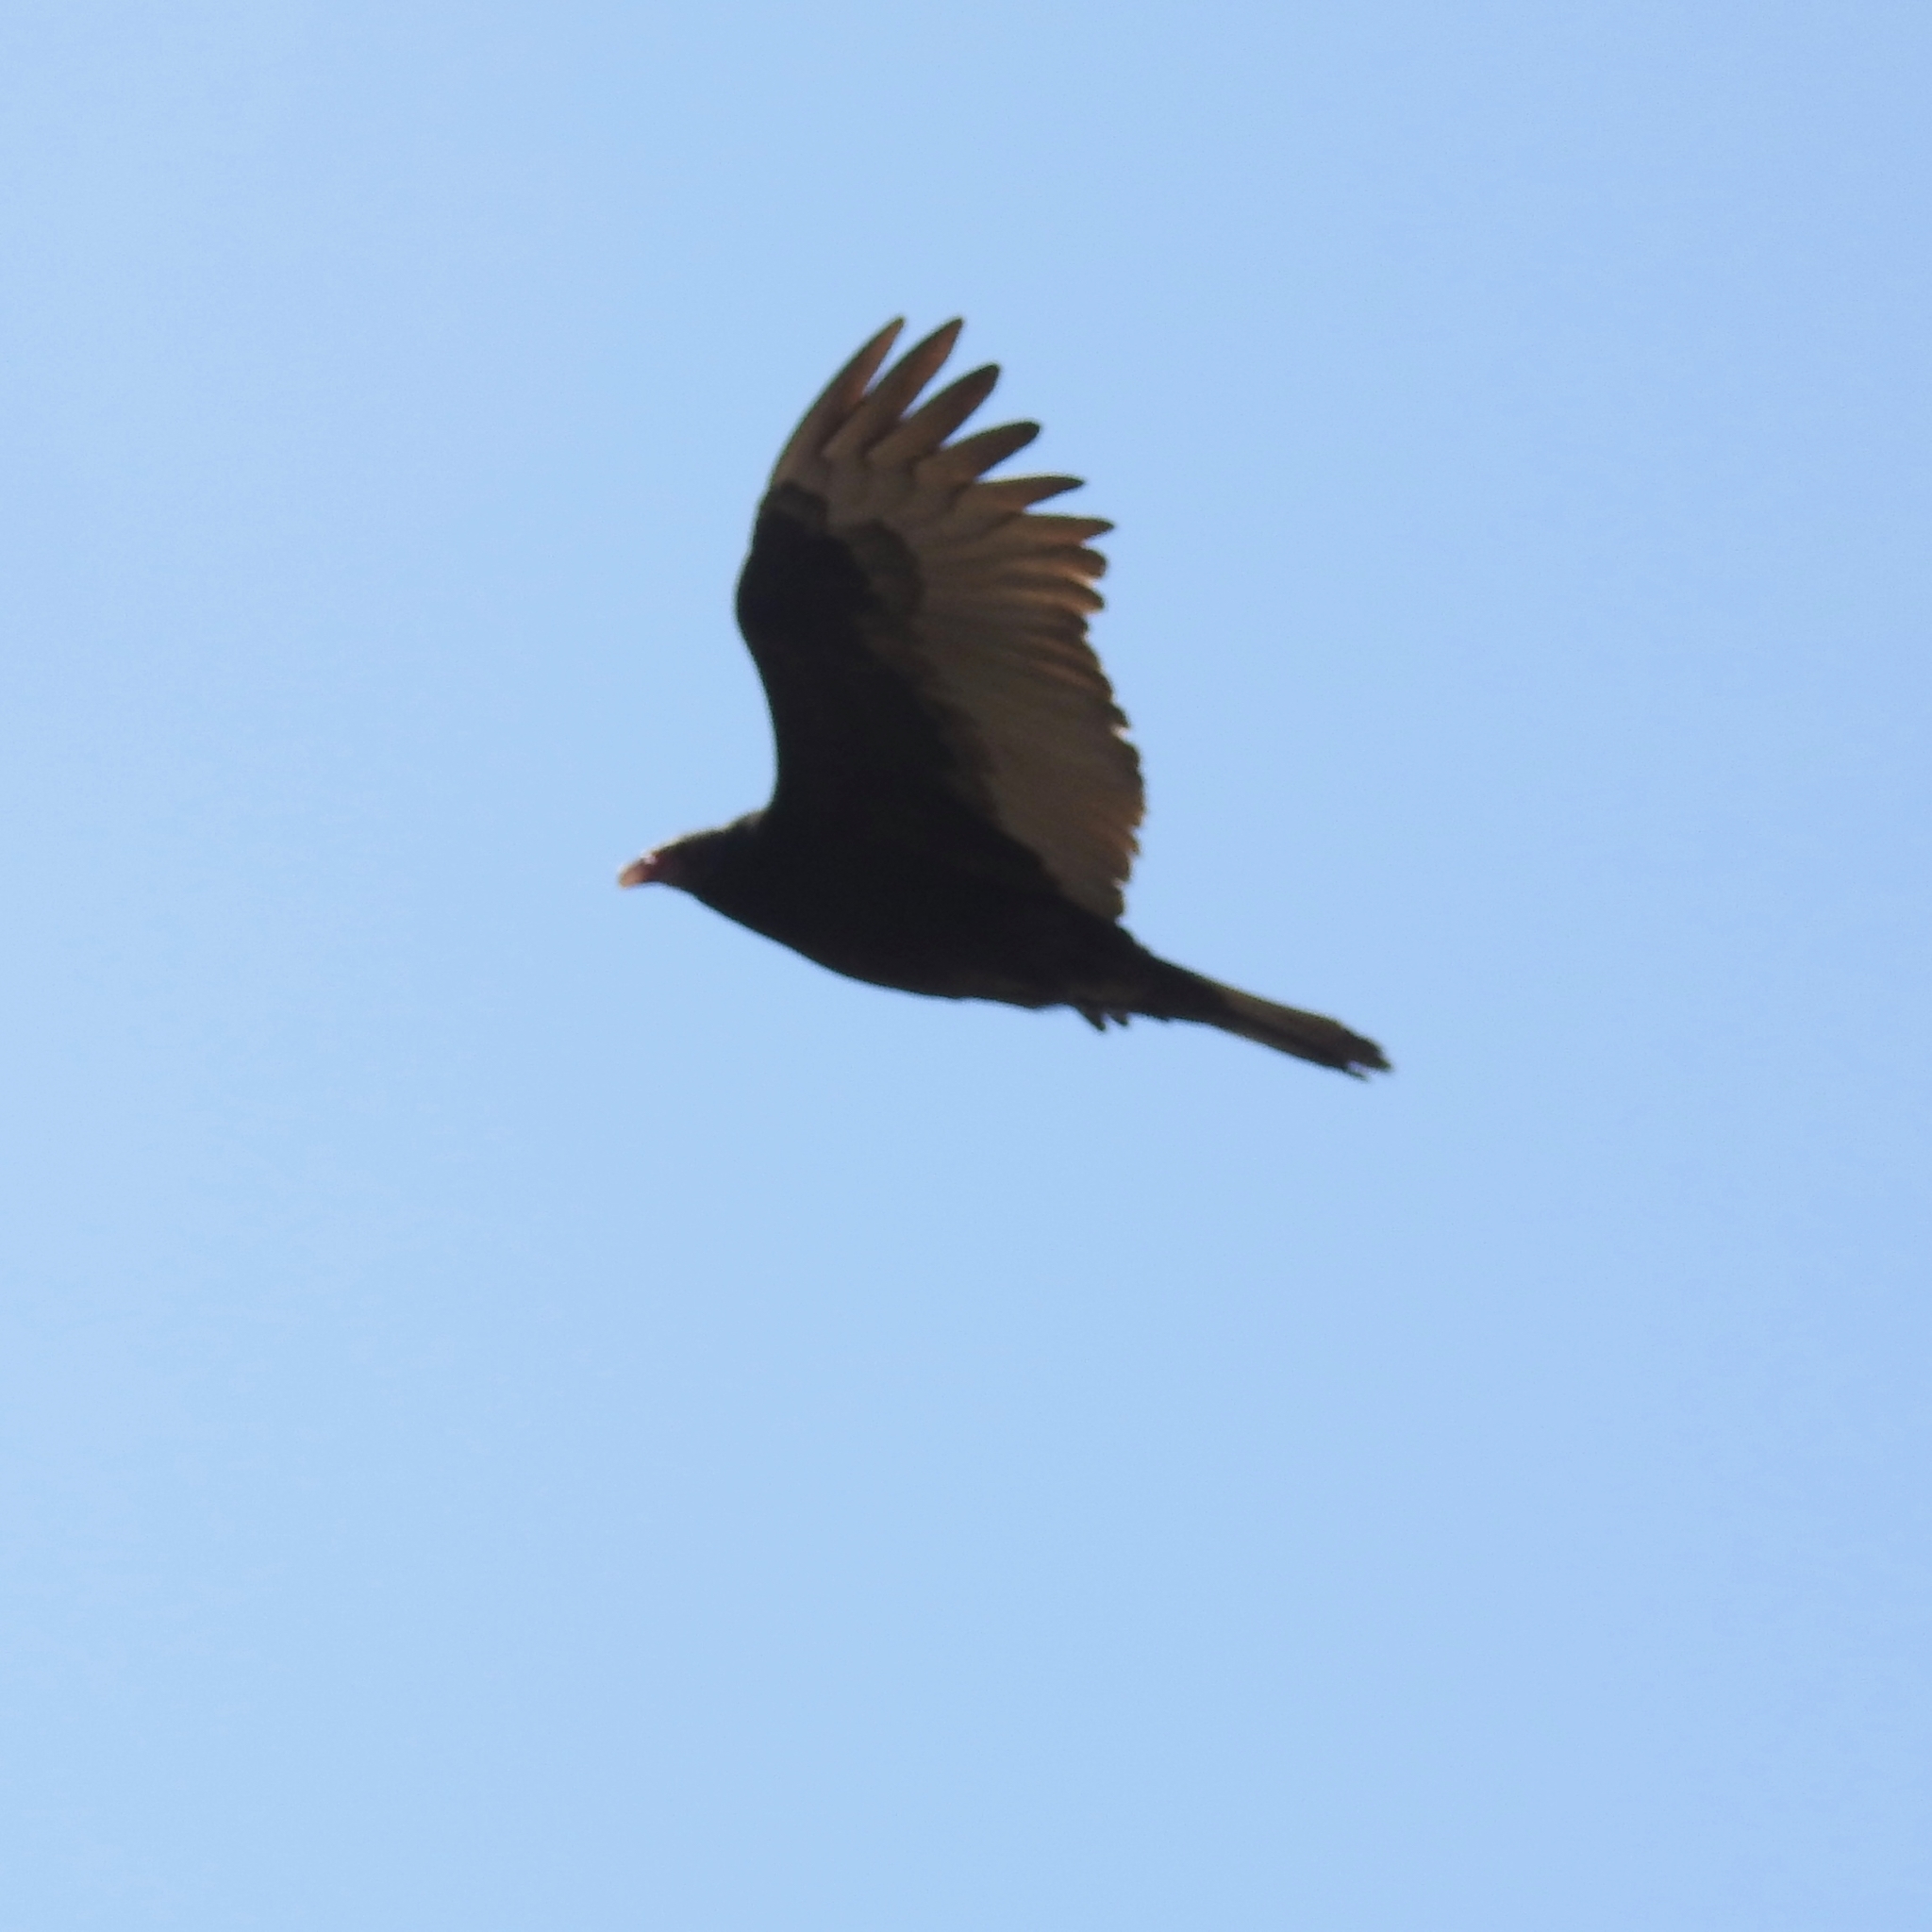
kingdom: Animalia
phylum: Chordata
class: Aves
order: Accipitriformes
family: Cathartidae
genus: Cathartes
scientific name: Cathartes aura
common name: Turkey vulture
